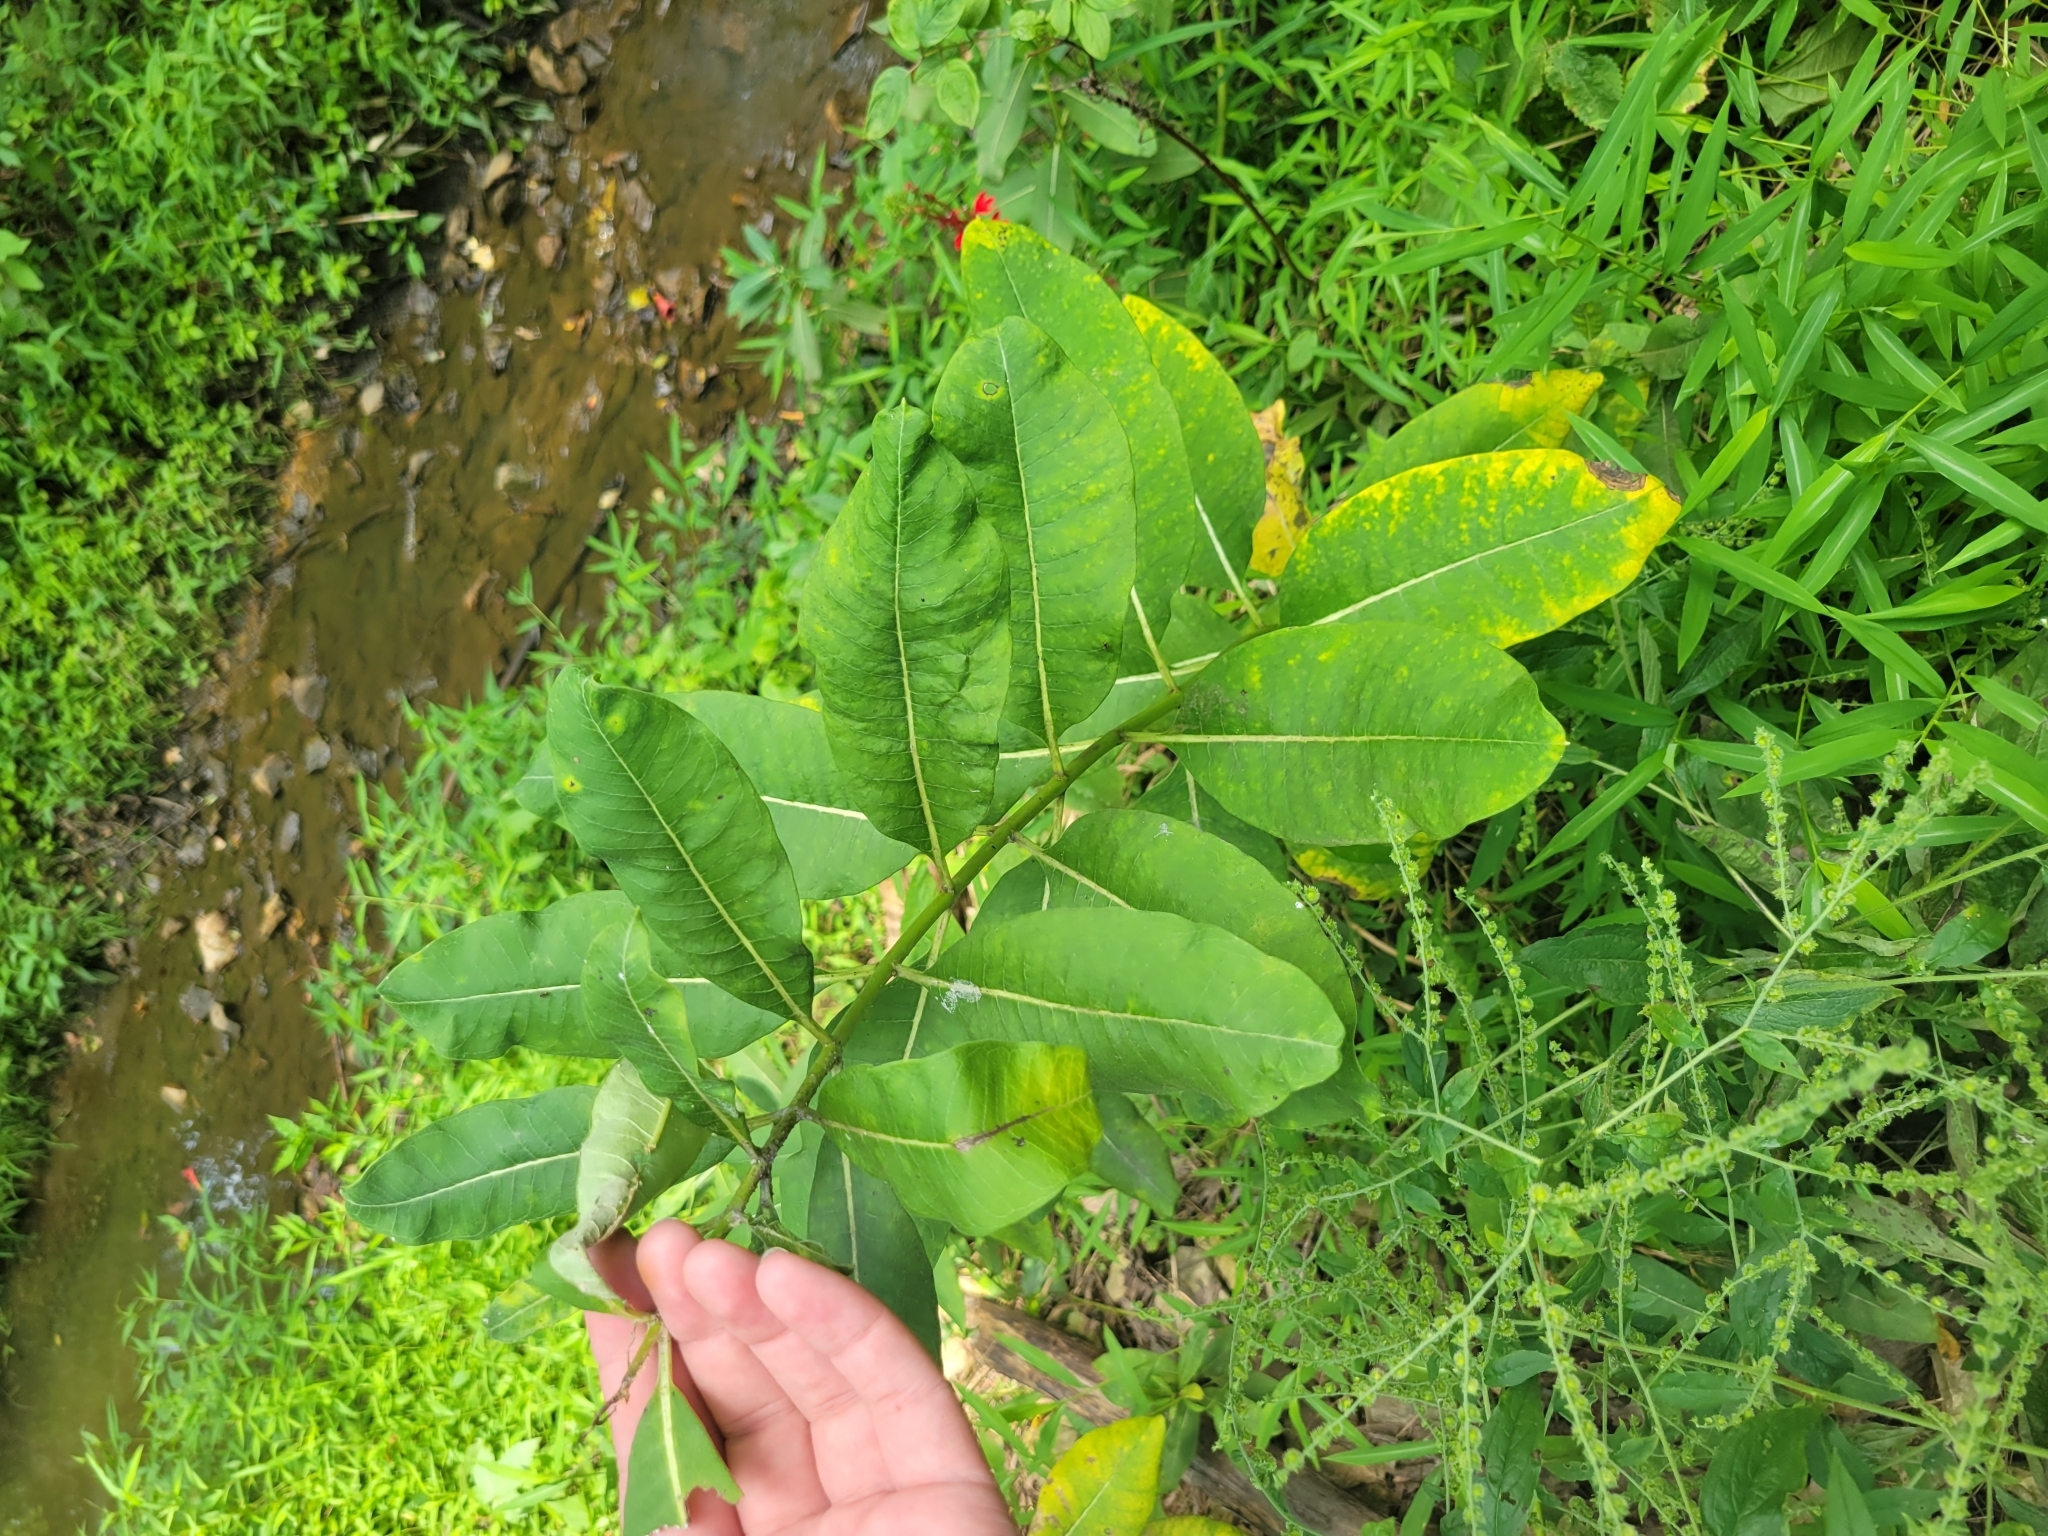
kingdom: Plantae
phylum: Tracheophyta
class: Magnoliopsida
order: Gentianales
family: Apocynaceae
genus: Asclepias
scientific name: Asclepias syriaca
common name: Common milkweed
